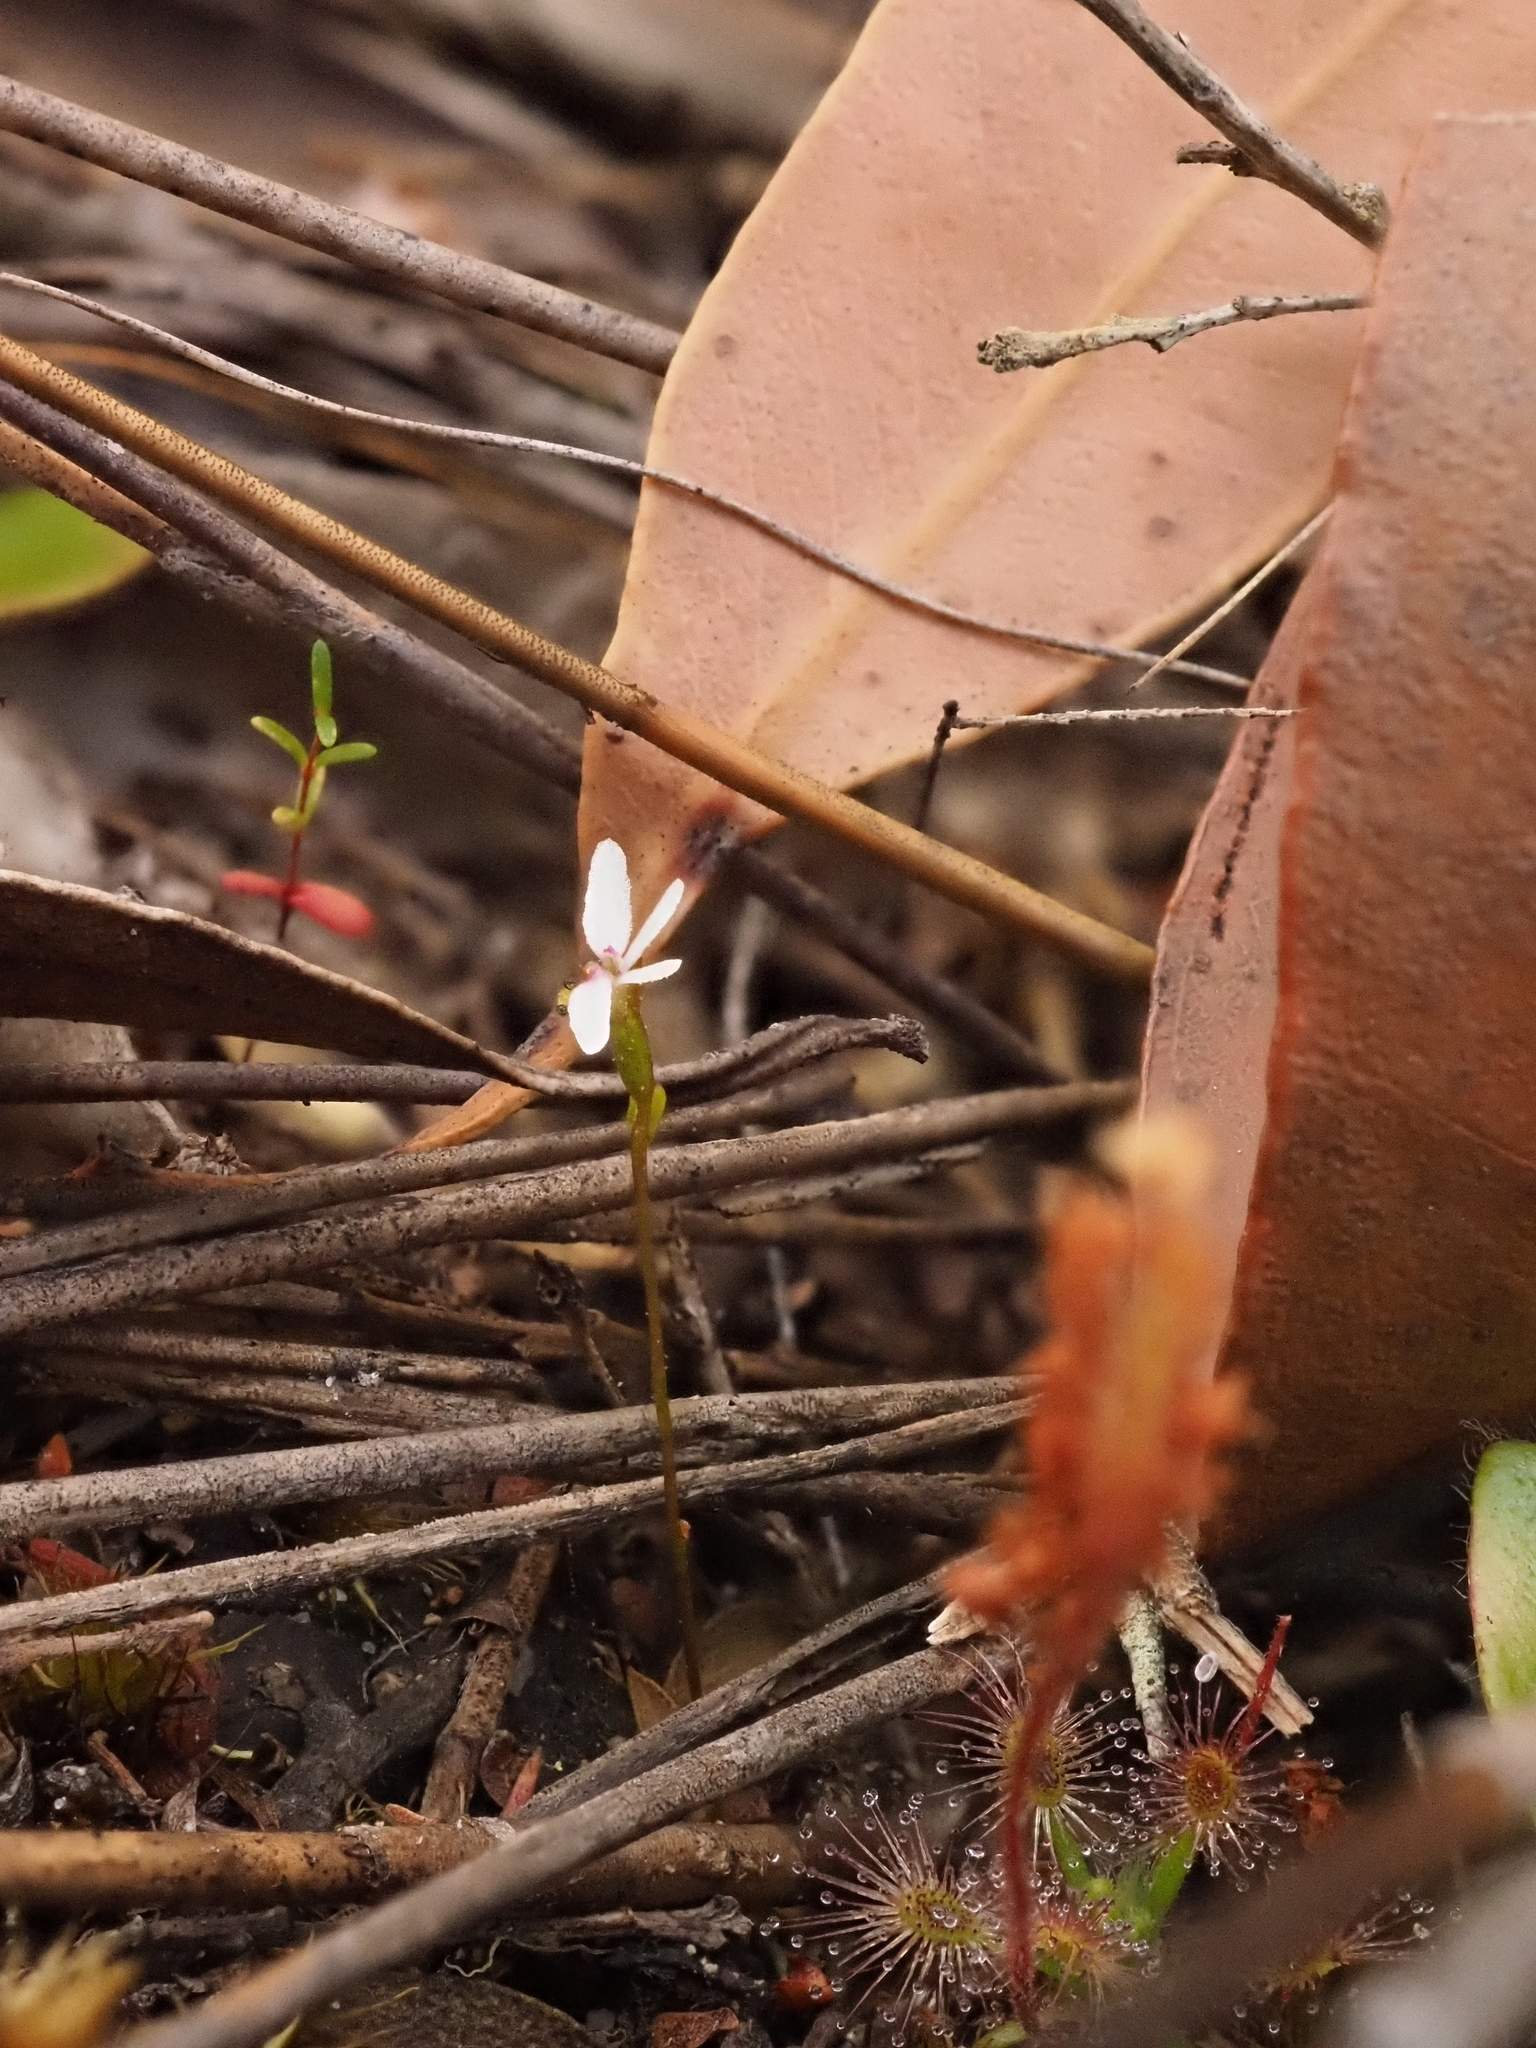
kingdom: Plantae
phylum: Tracheophyta
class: Magnoliopsida
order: Asterales
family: Stylidiaceae
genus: Stylidium
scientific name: Stylidium pygmaeum
